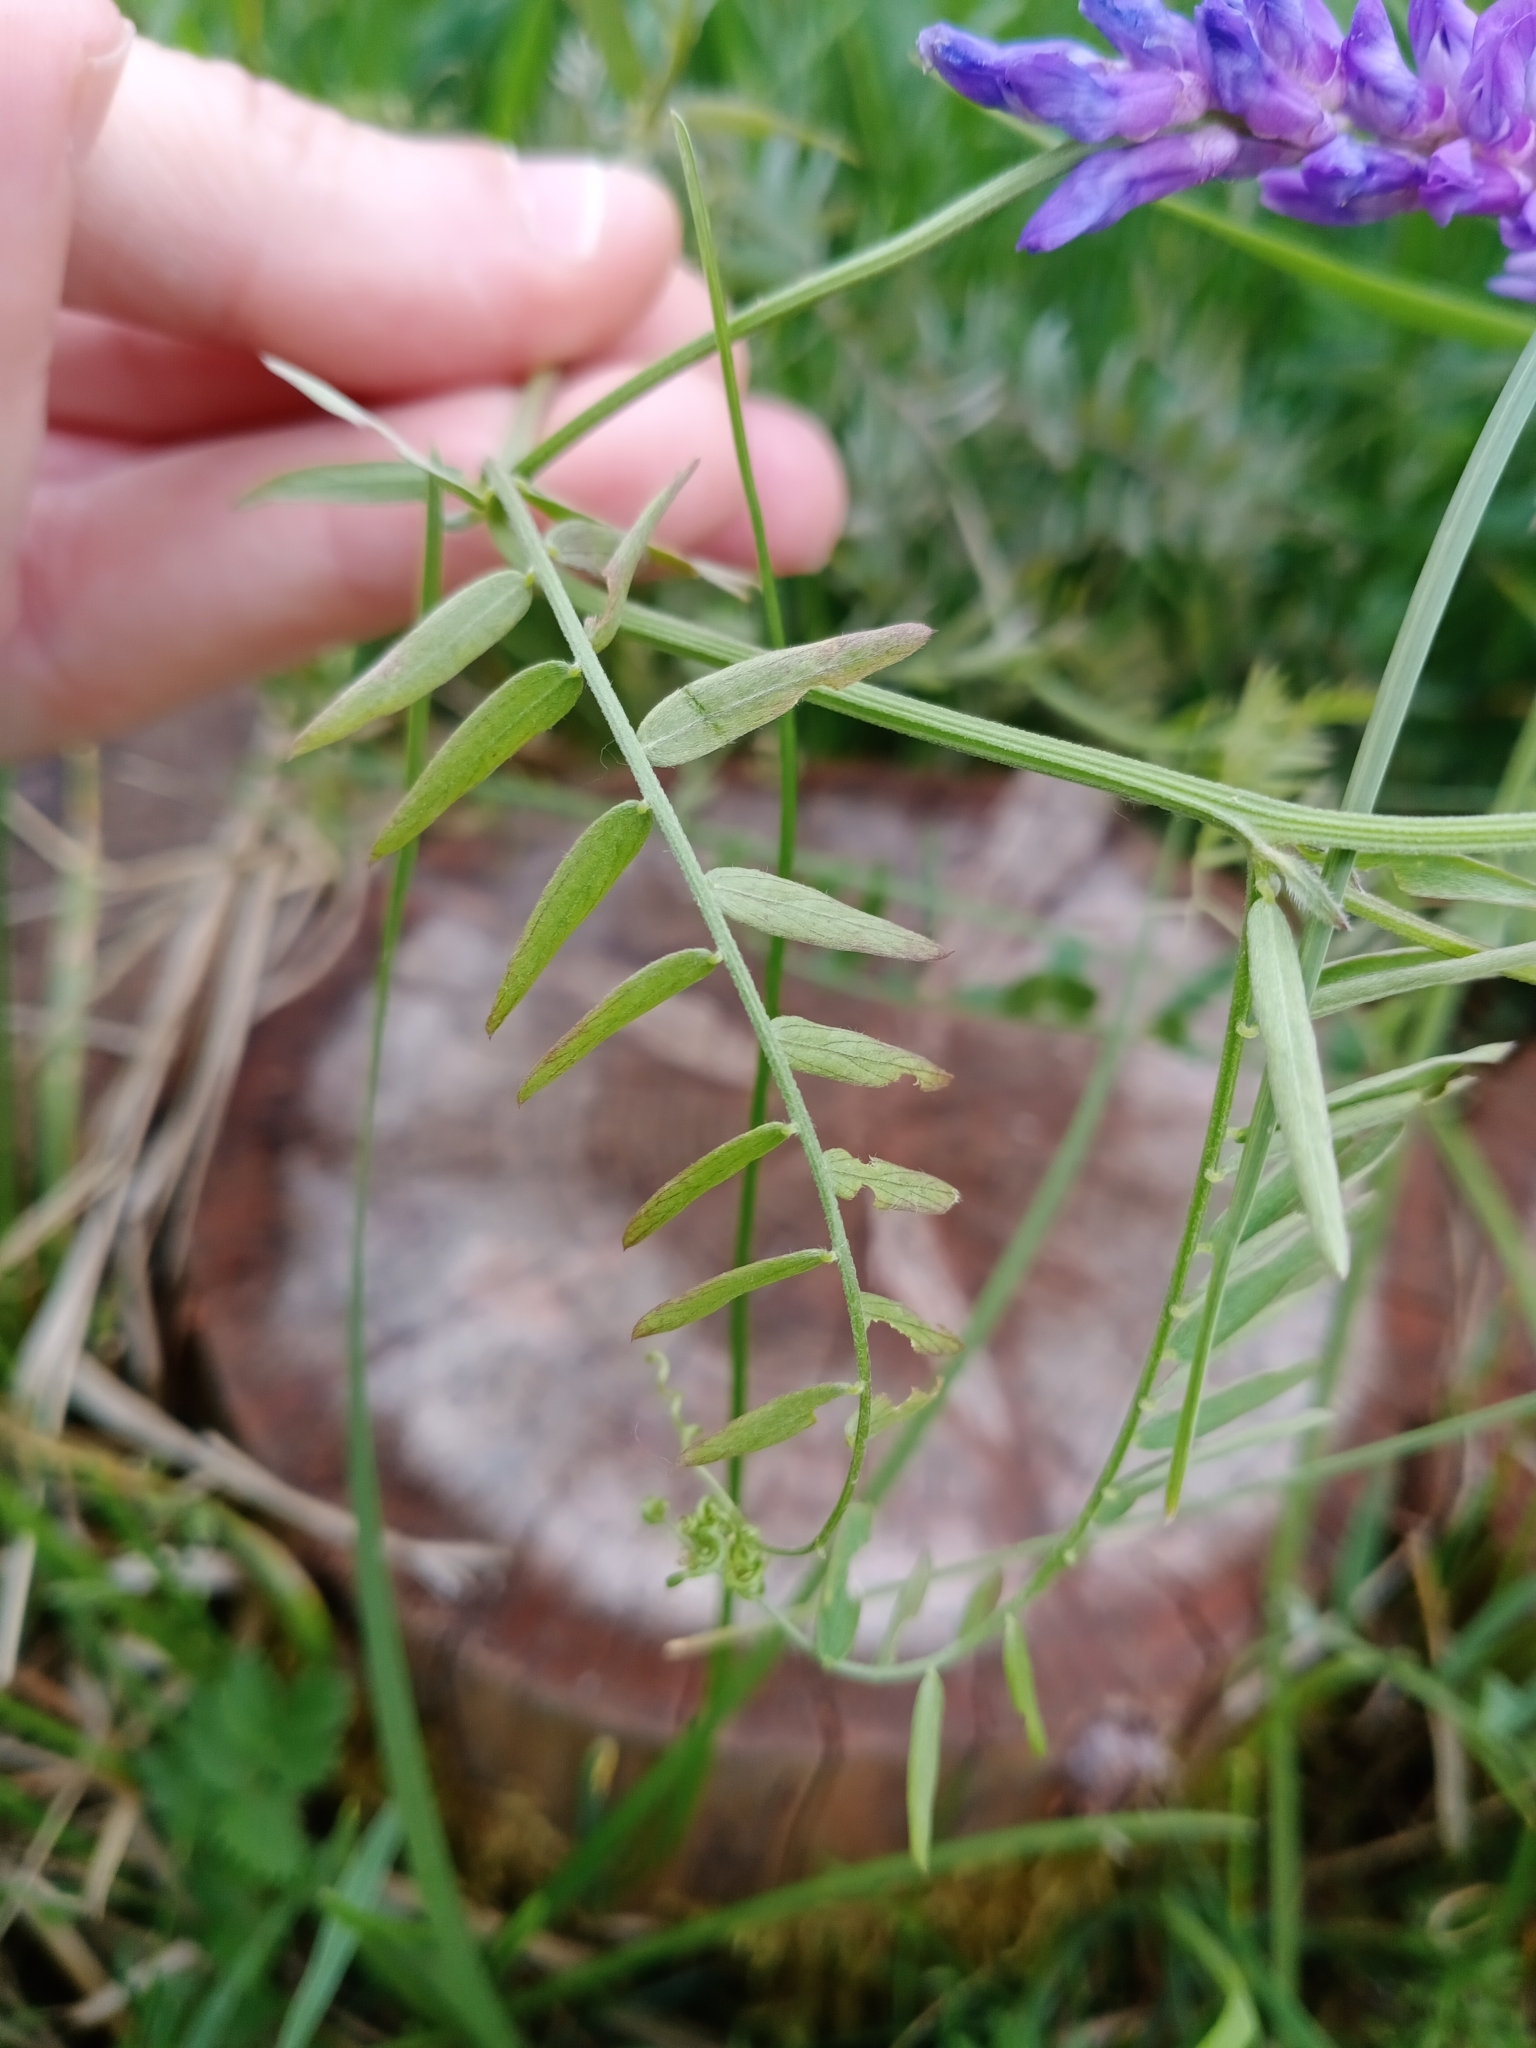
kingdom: Plantae
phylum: Tracheophyta
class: Magnoliopsida
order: Fabales
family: Fabaceae
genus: Vicia
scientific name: Vicia cracca
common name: Bird vetch
